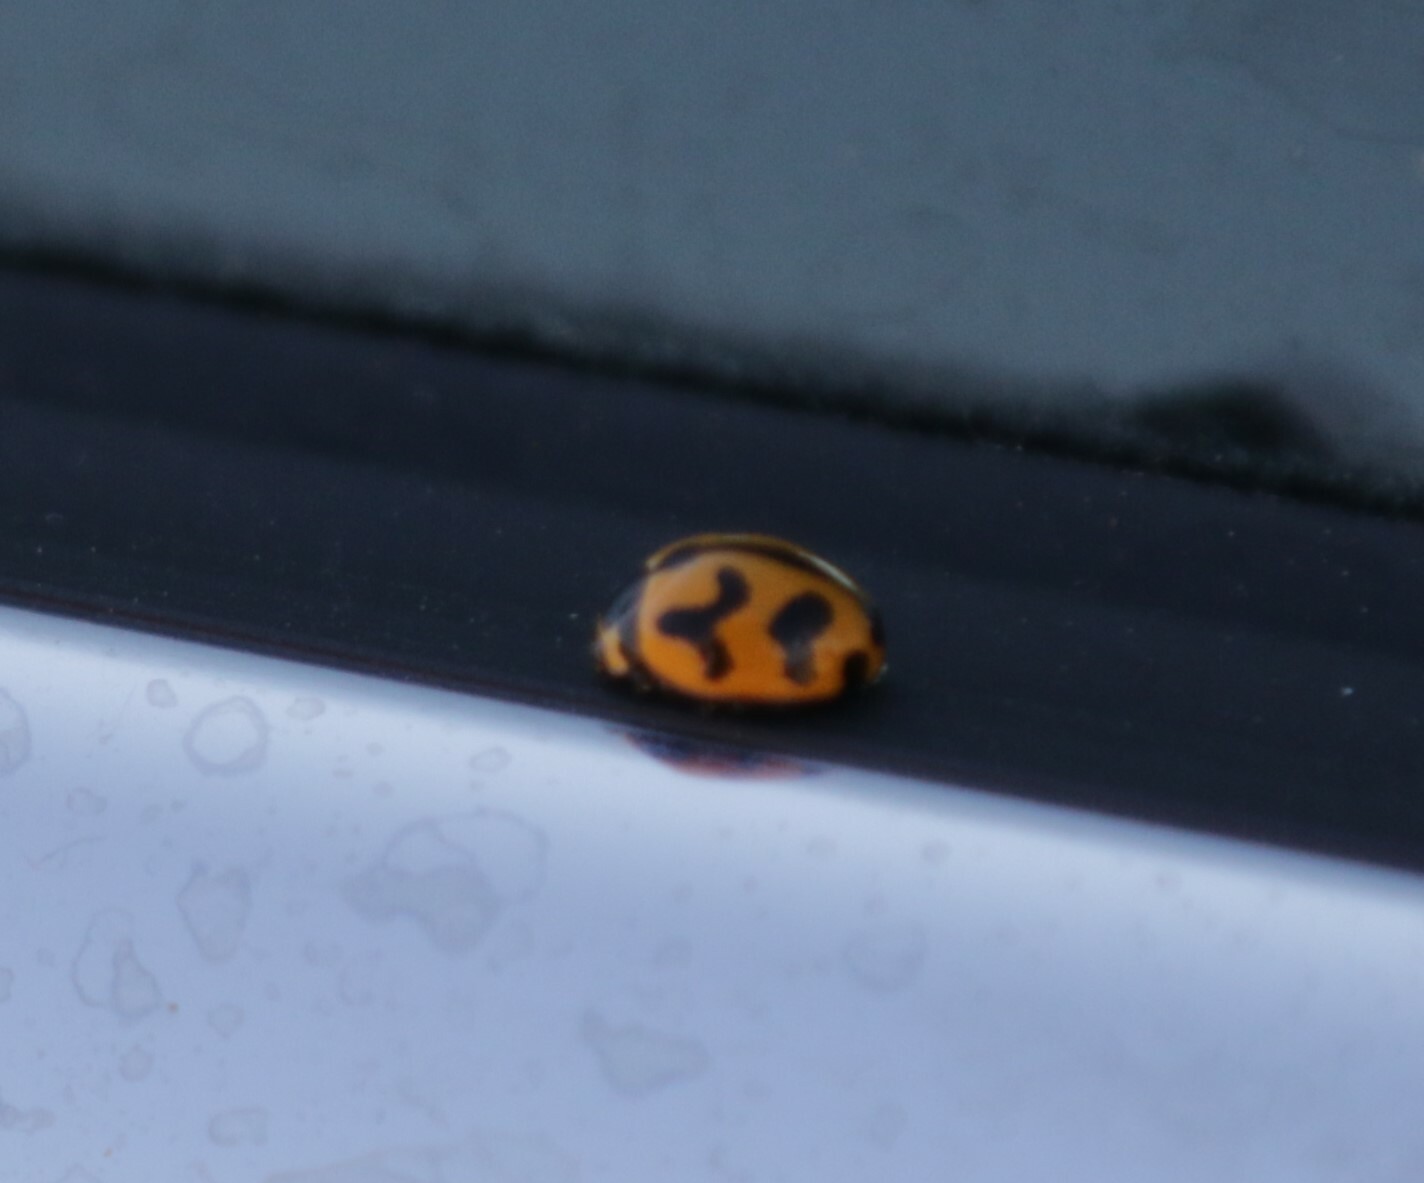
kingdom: Animalia
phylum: Arthropoda
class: Insecta
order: Coleoptera
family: Coccinellidae
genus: Coccinella
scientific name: Coccinella transversalis
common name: Transverse lady beetle
